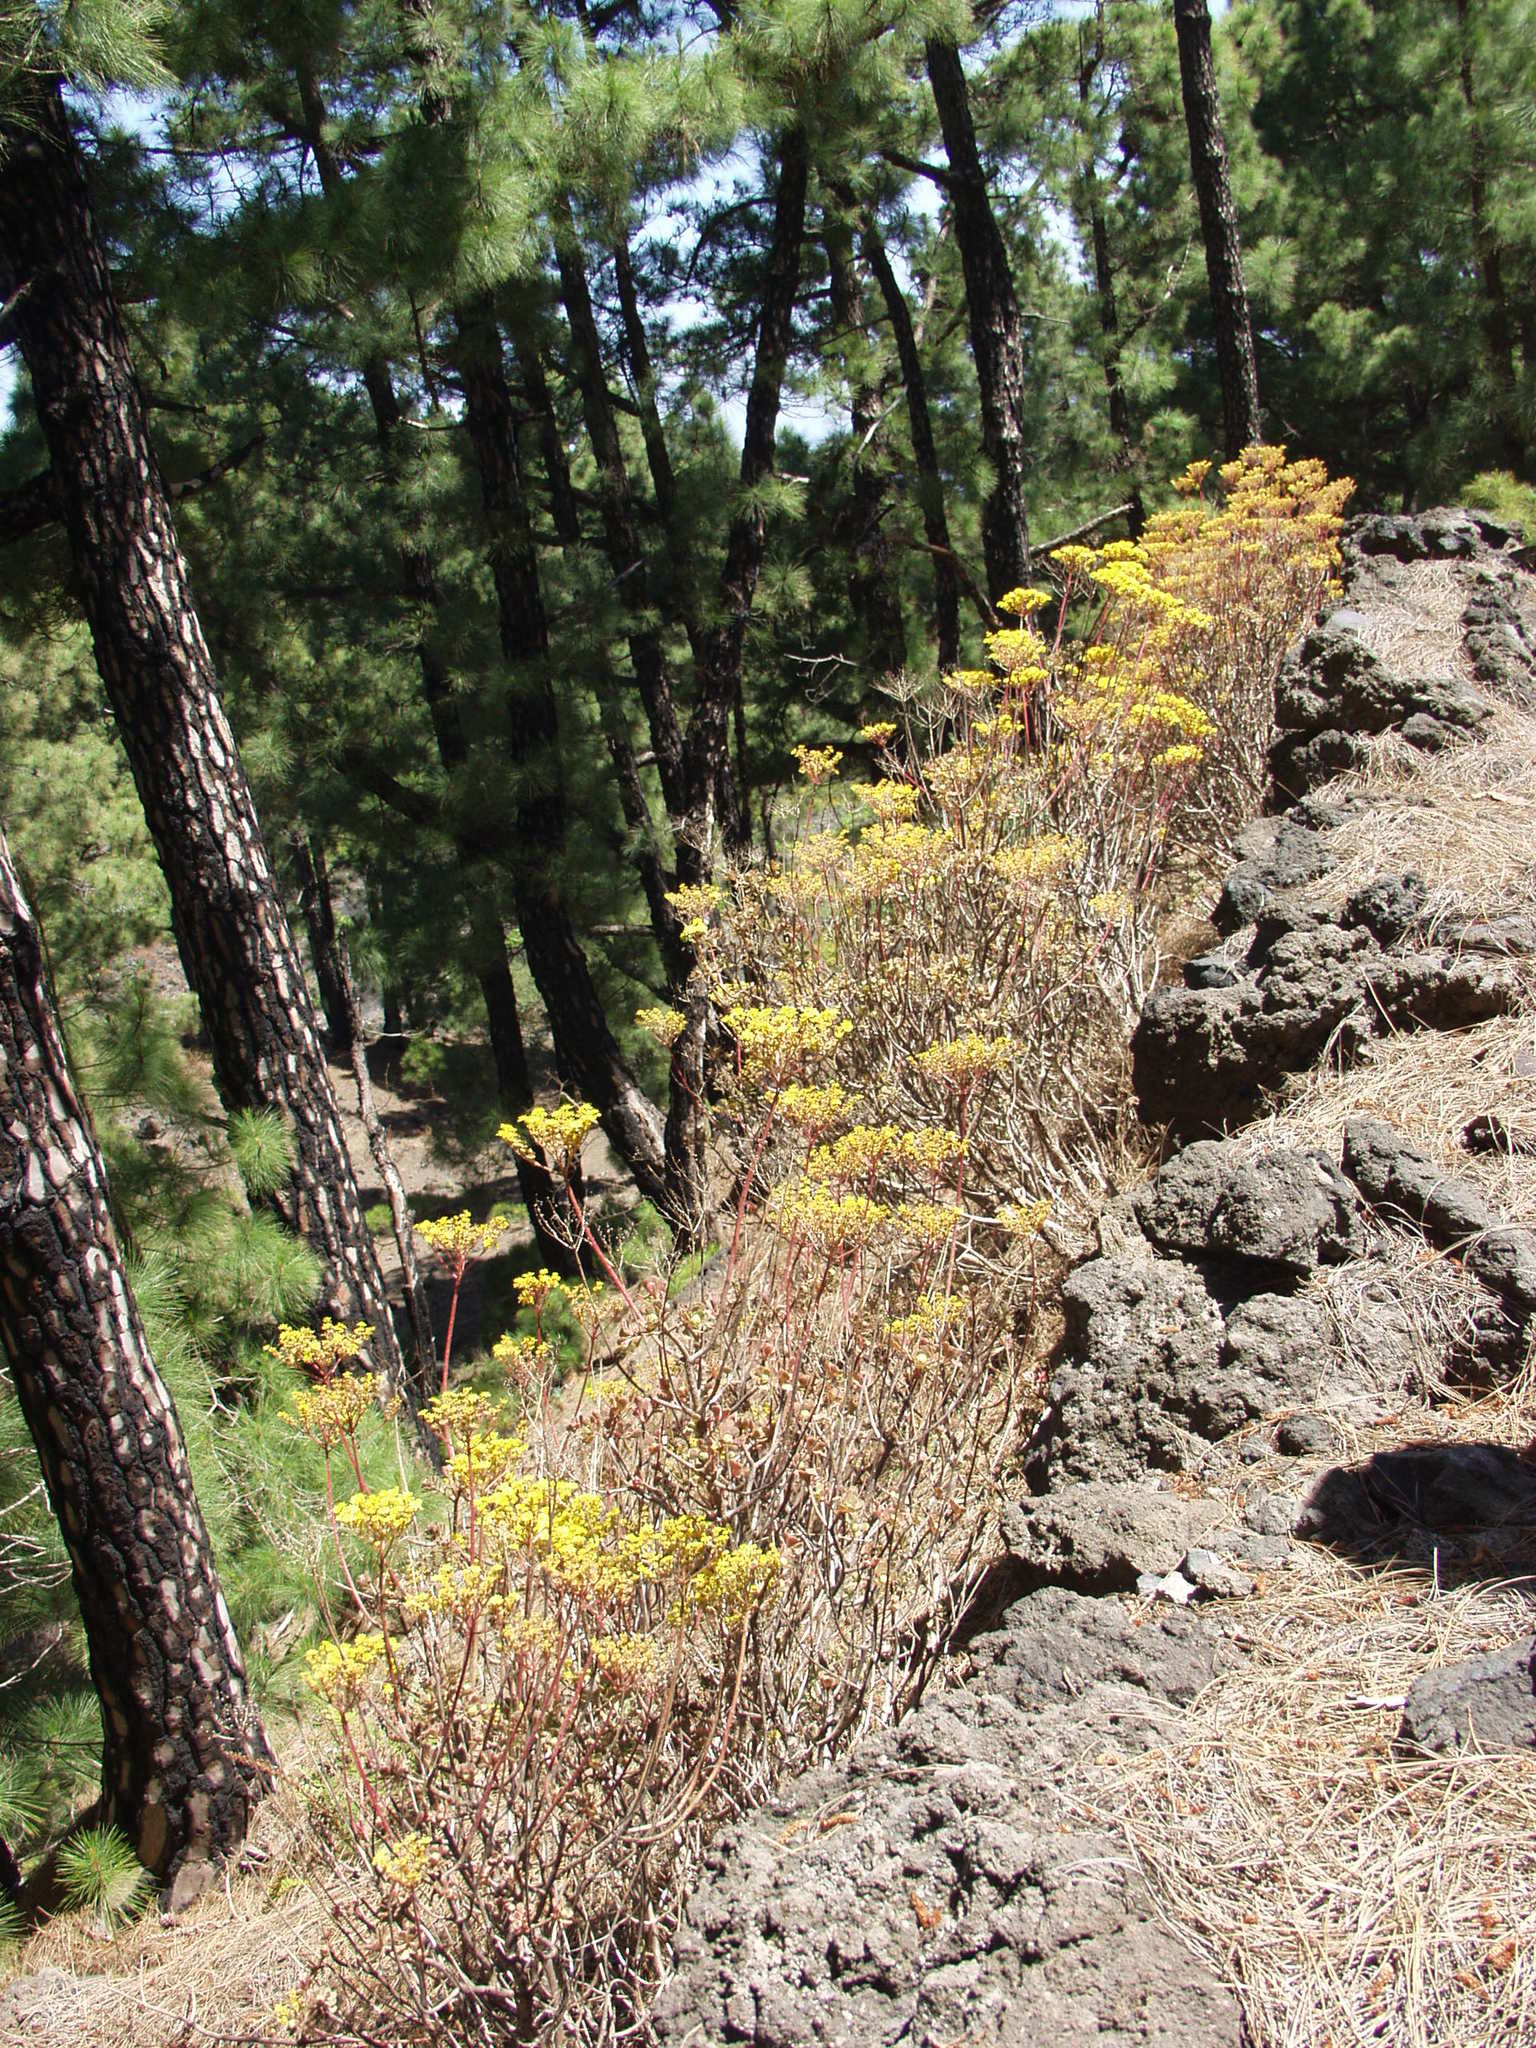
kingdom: Plantae
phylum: Tracheophyta
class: Magnoliopsida
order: Saxifragales
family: Crassulaceae
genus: Aeonium
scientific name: Aeonium spathulatum
